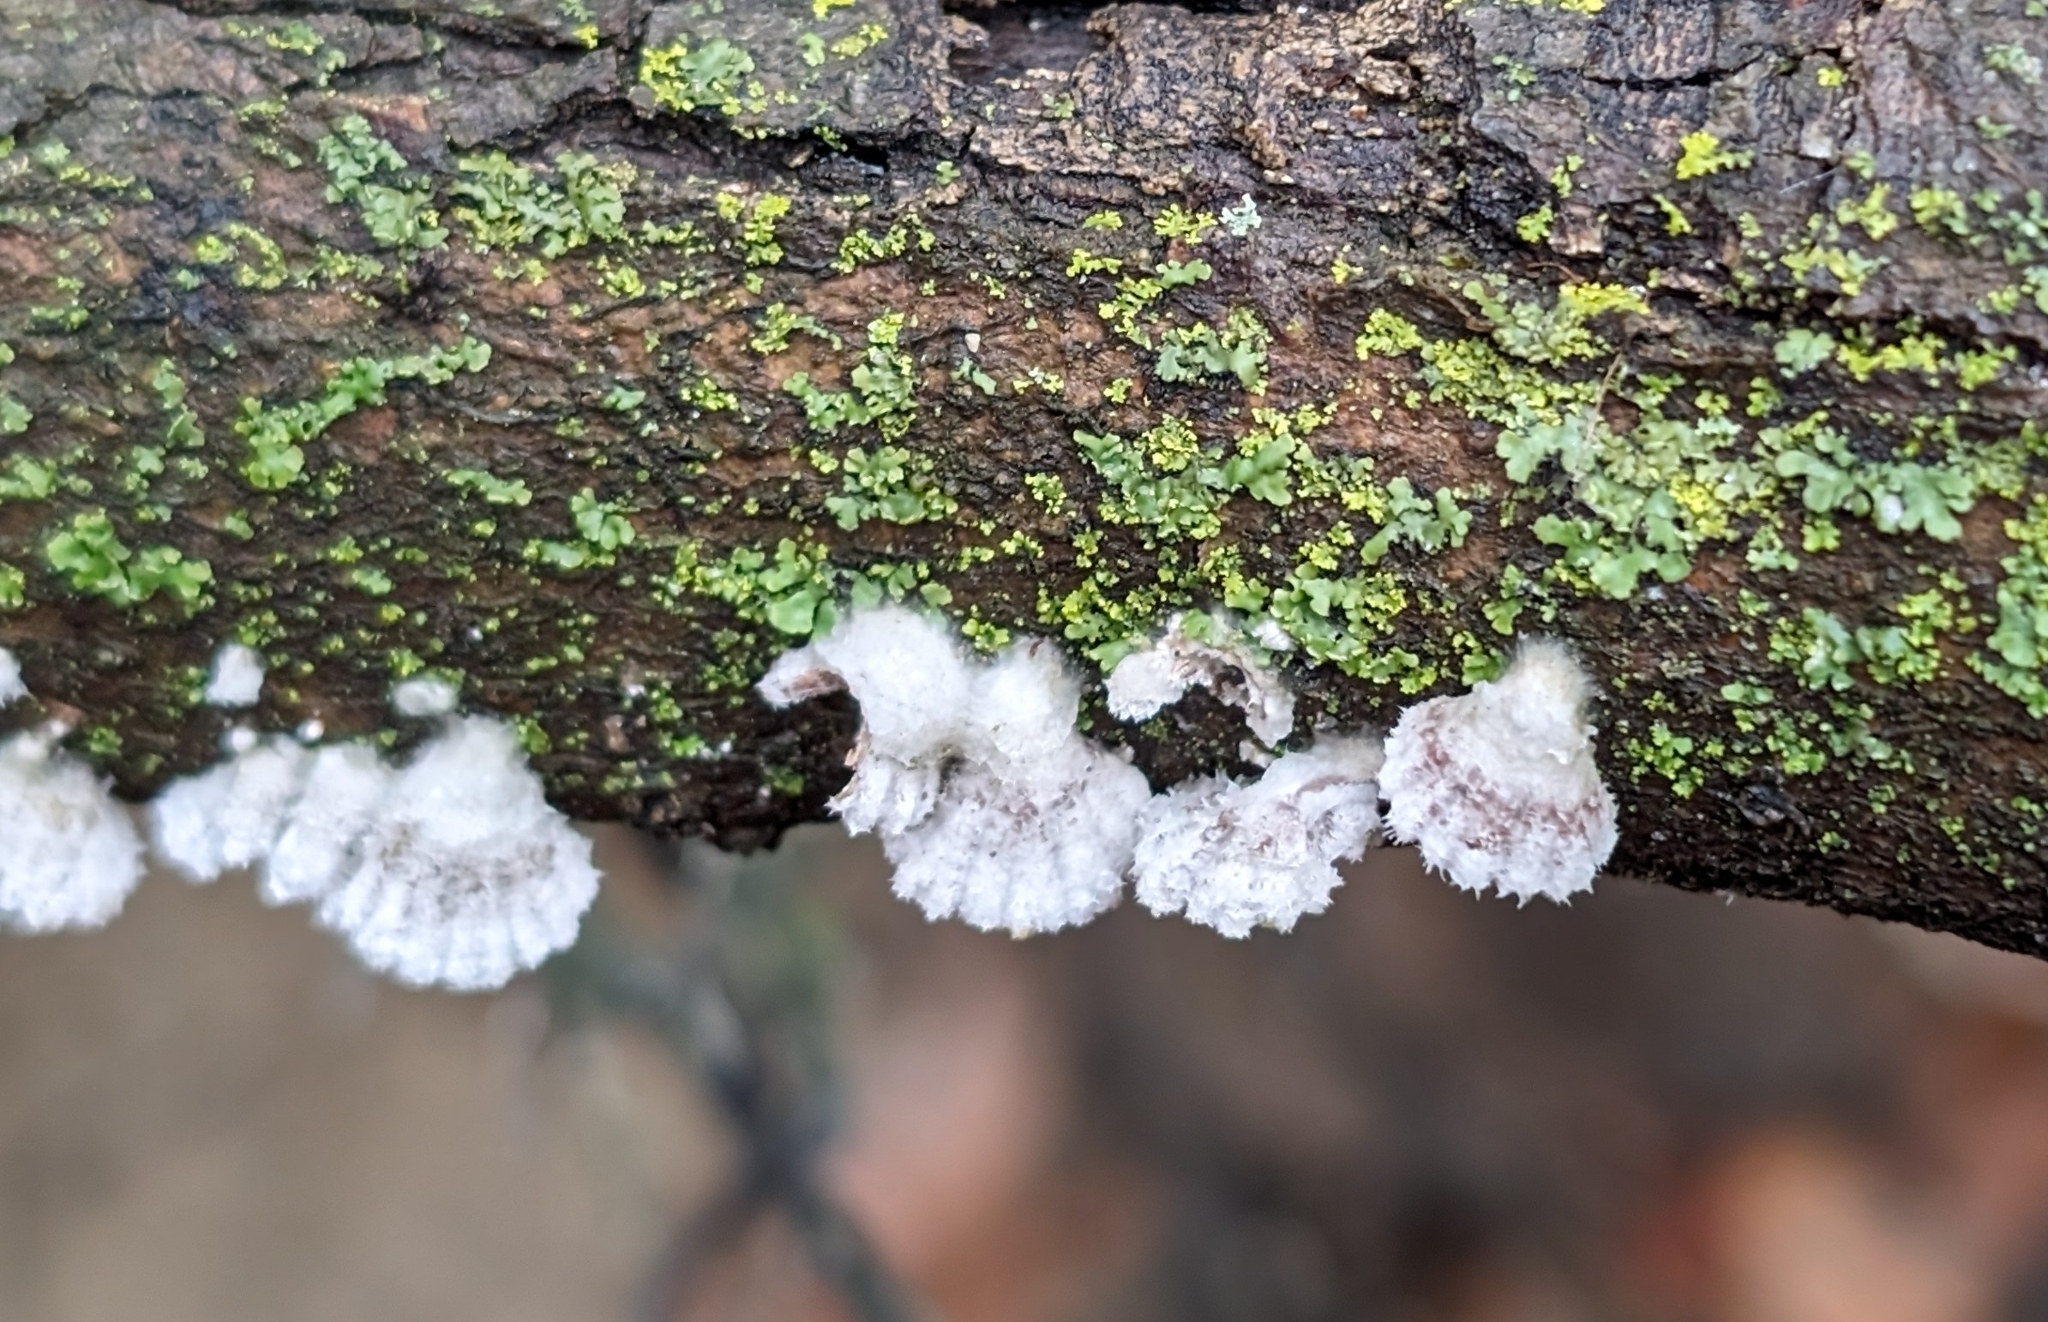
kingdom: Fungi
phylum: Basidiomycota
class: Agaricomycetes
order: Agaricales
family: Schizophyllaceae
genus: Schizophyllum
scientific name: Schizophyllum commune
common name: Common porecrust
